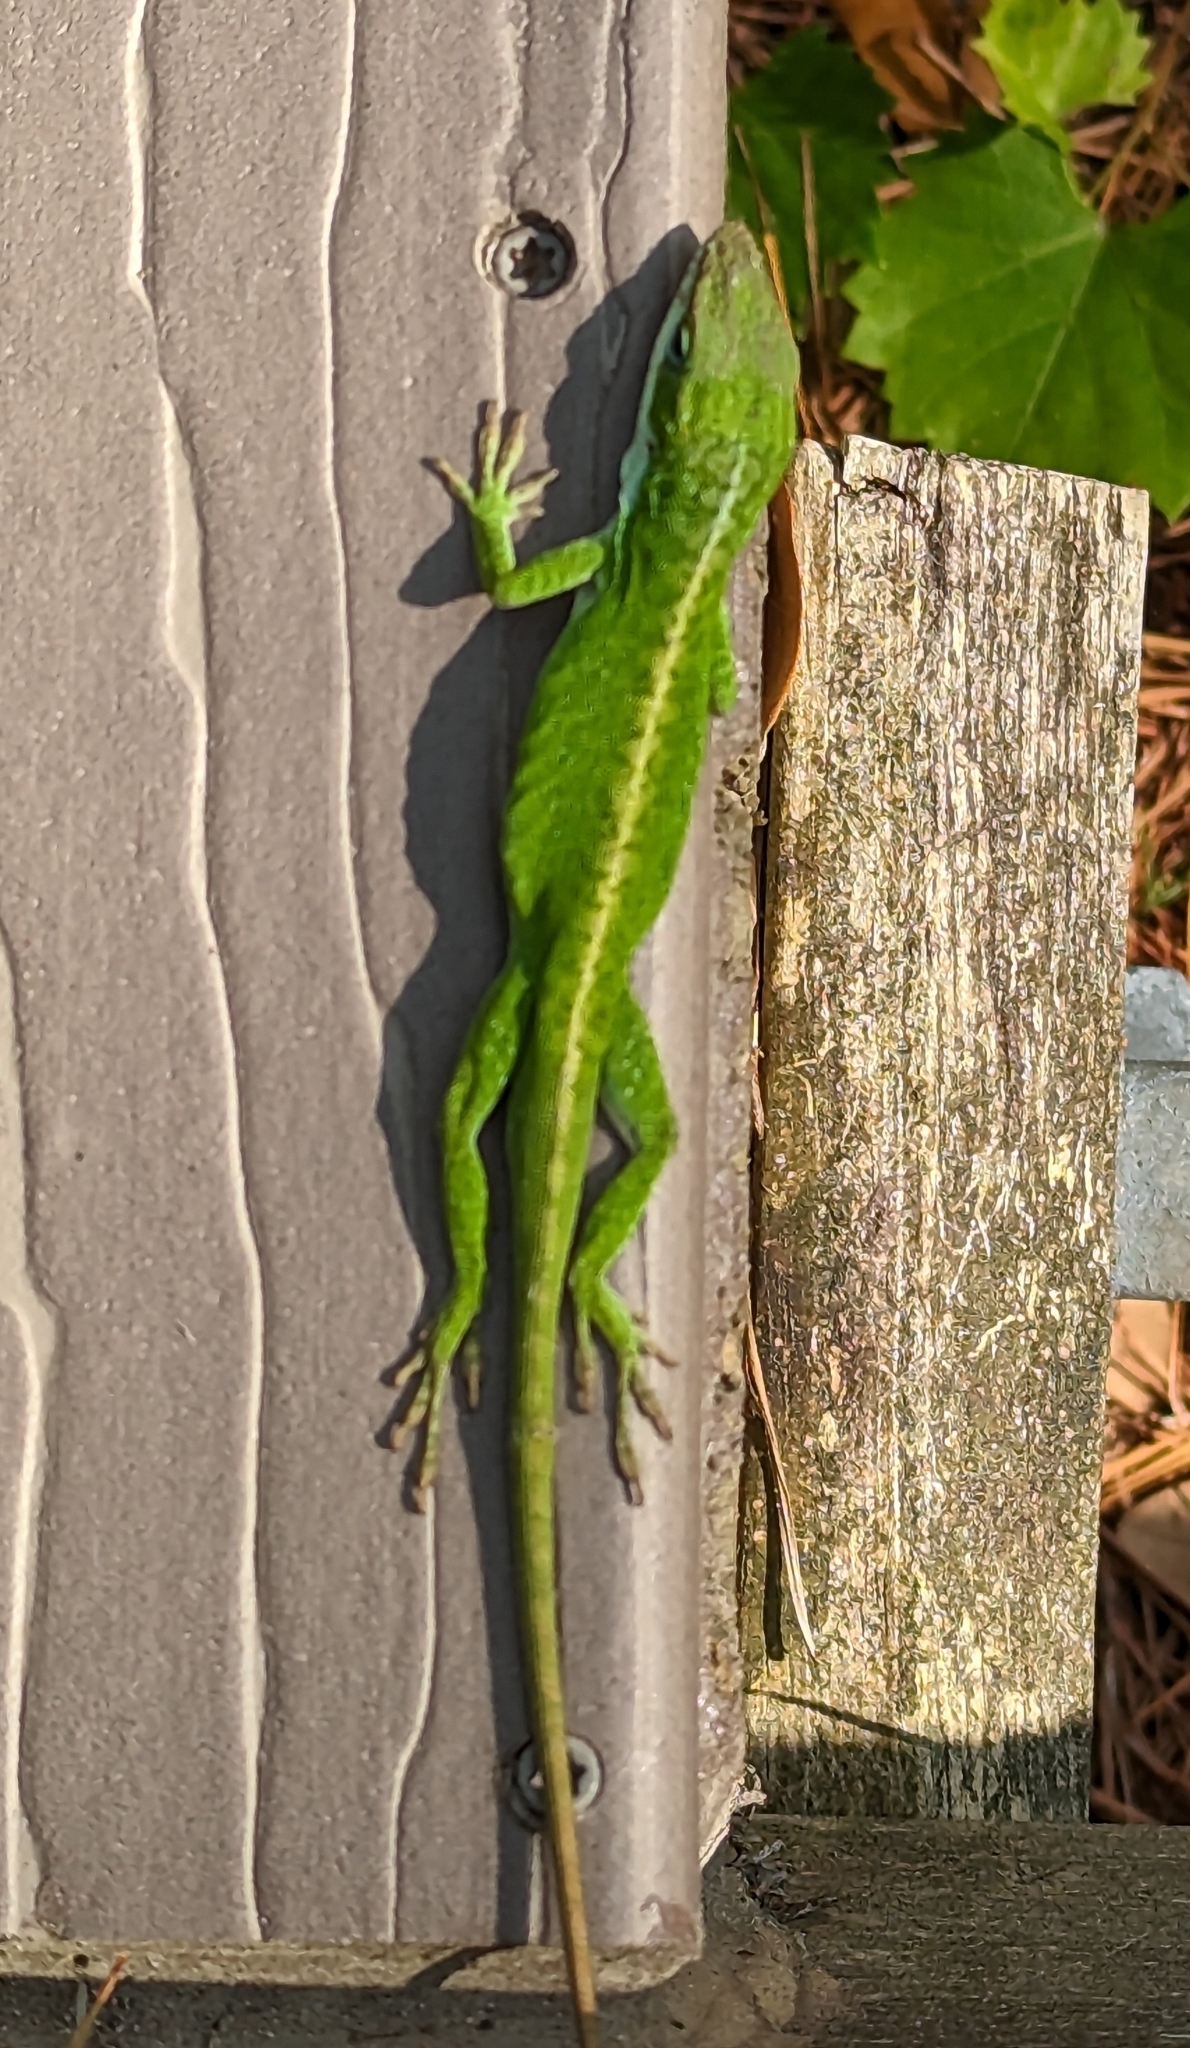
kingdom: Animalia
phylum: Chordata
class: Squamata
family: Dactyloidae
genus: Anolis
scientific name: Anolis carolinensis
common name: Green anole
